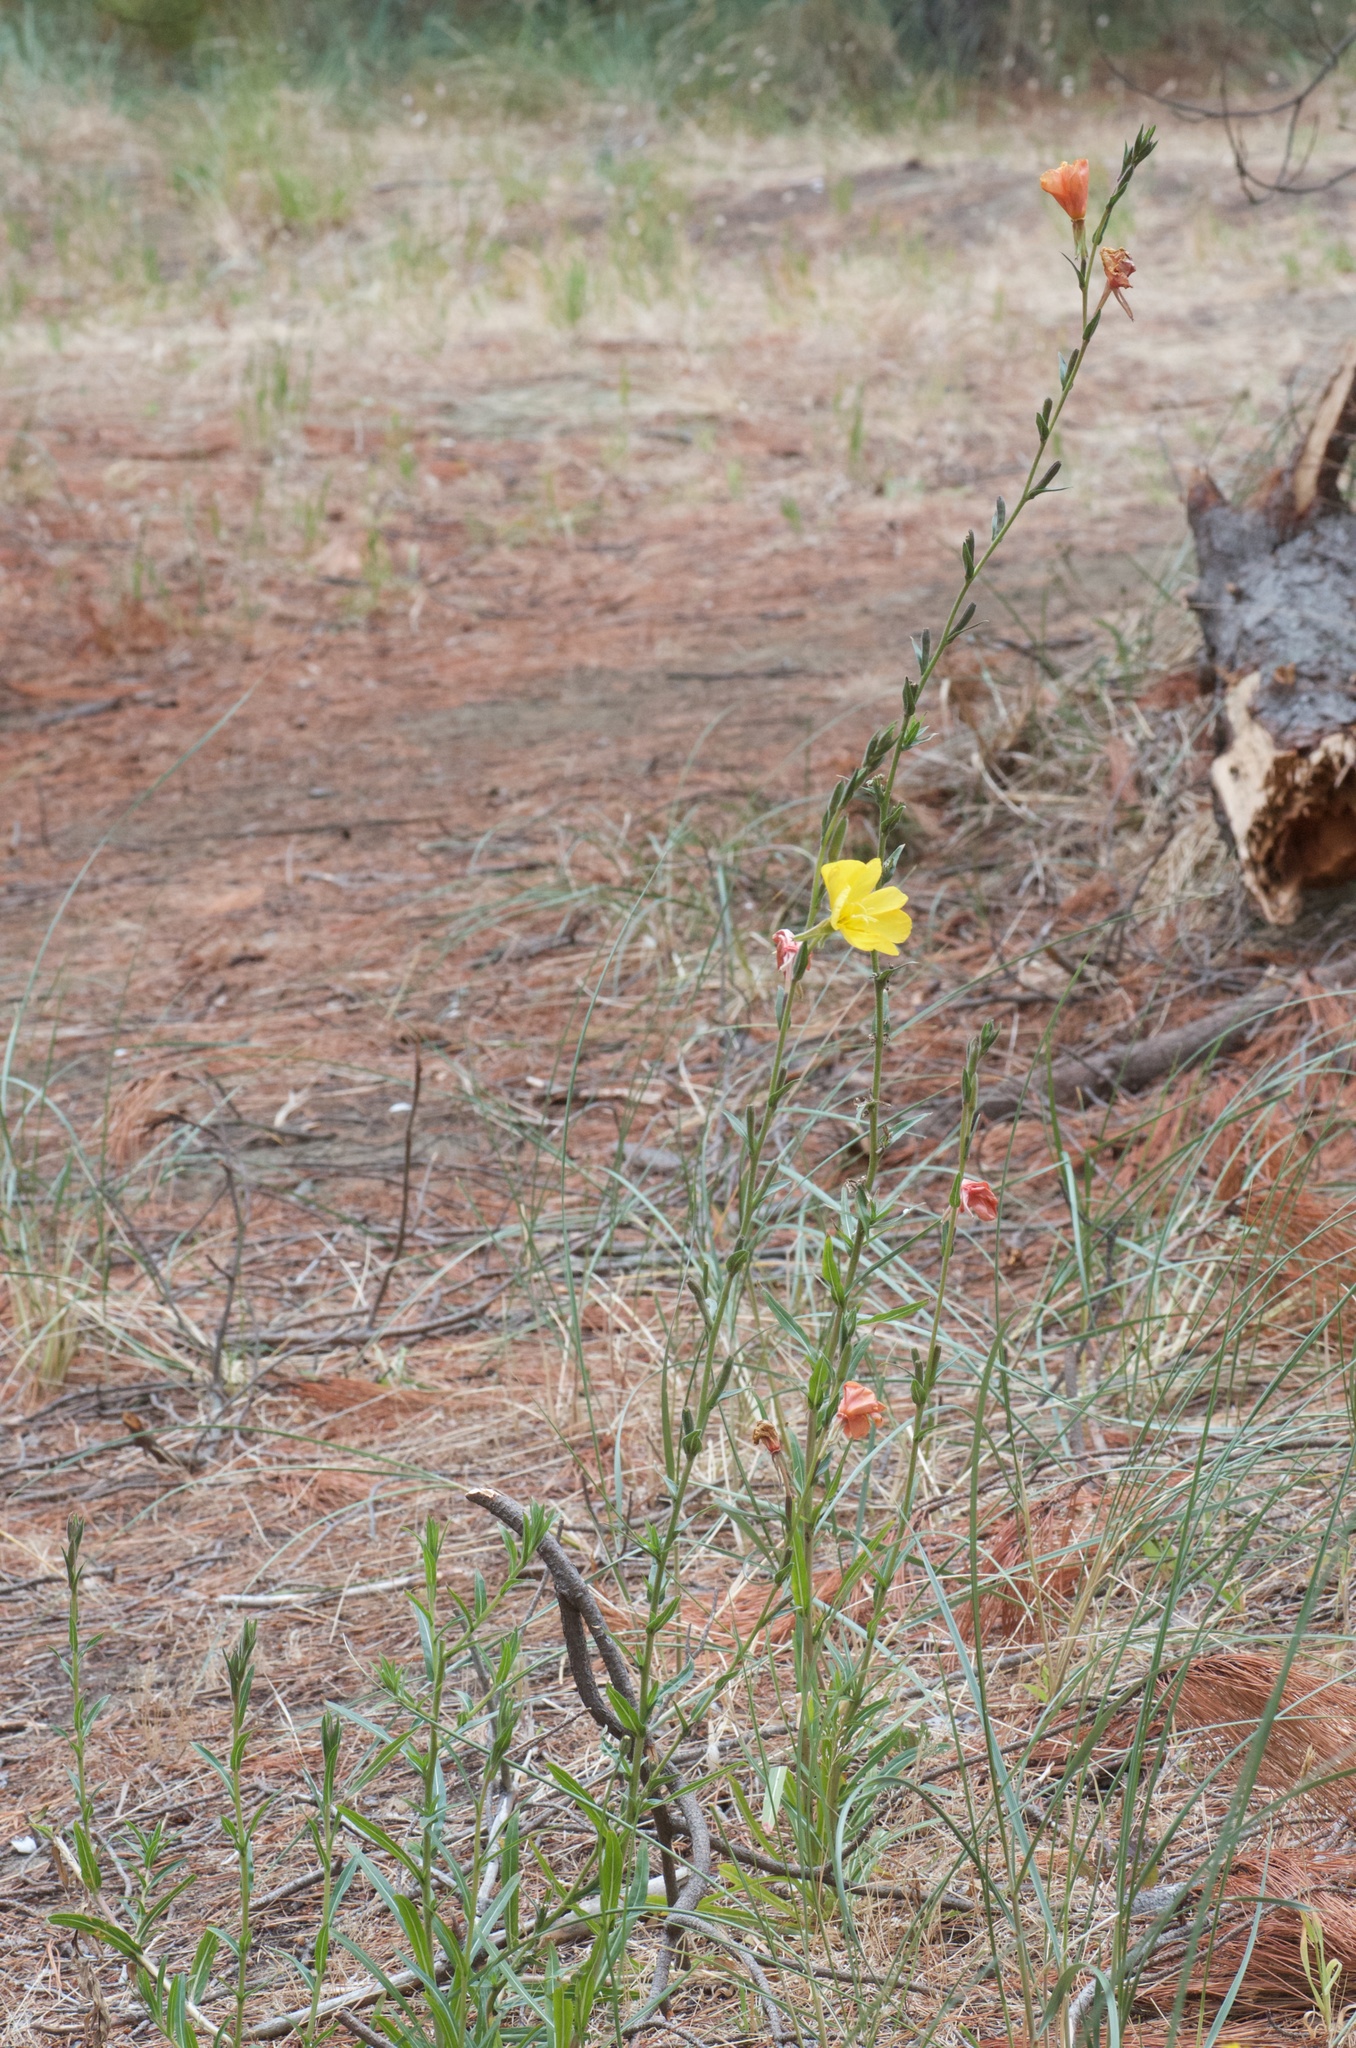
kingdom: Plantae
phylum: Tracheophyta
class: Magnoliopsida
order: Myrtales
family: Onagraceae
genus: Oenothera
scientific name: Oenothera stricta
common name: Fragrant evening-primrose
